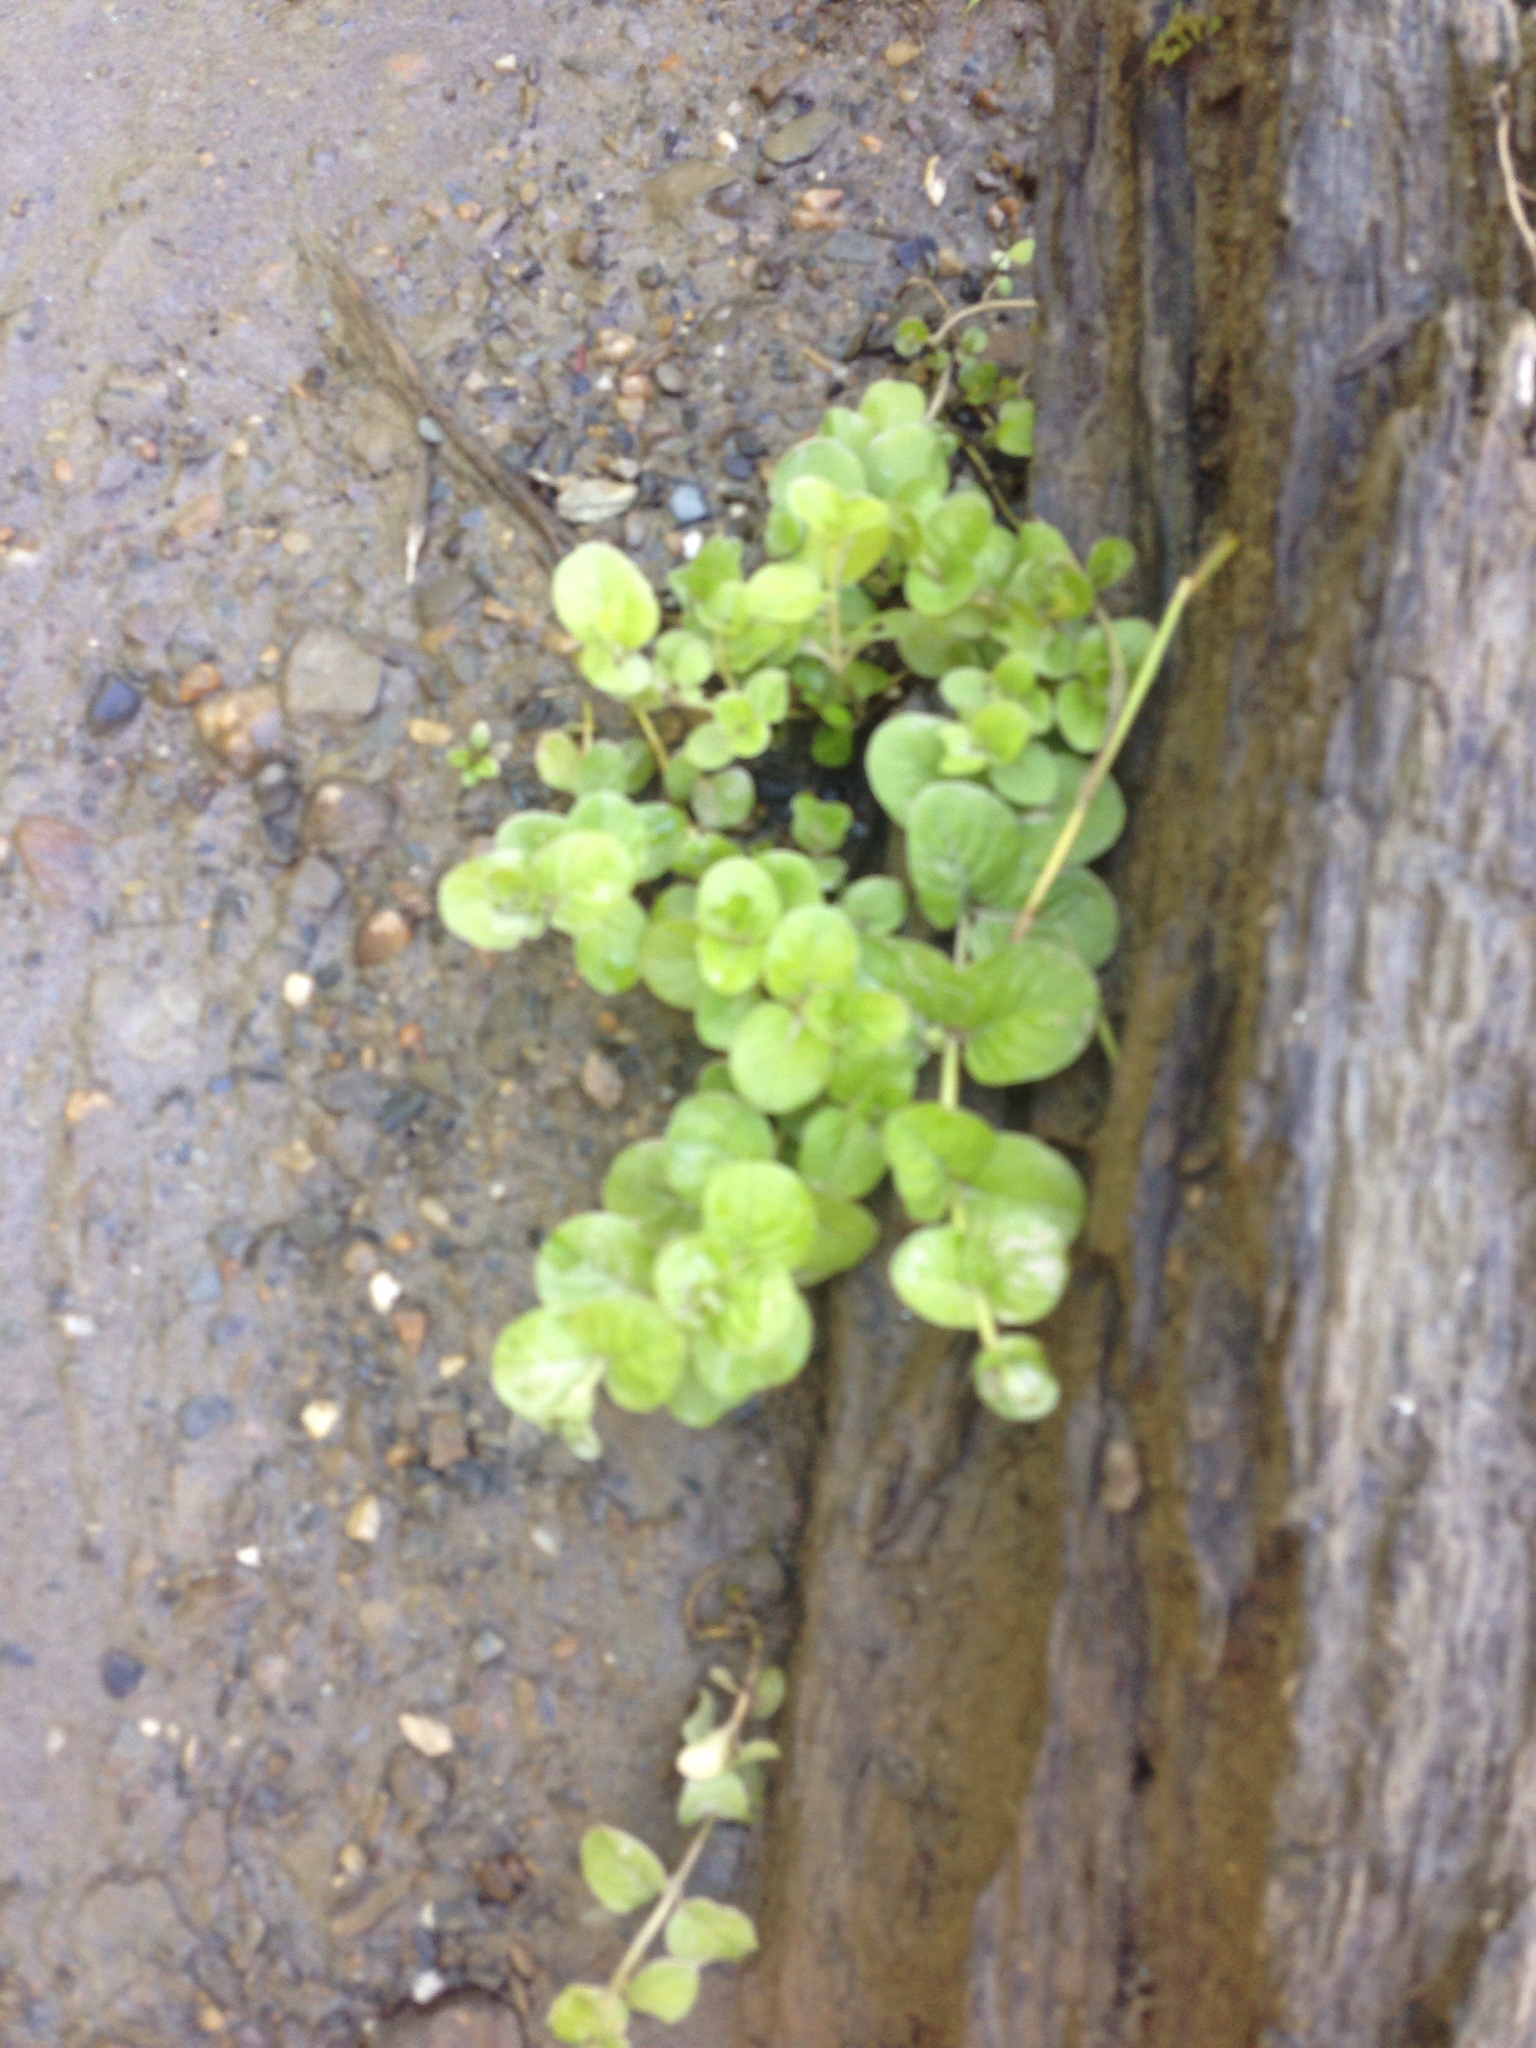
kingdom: Plantae
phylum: Tracheophyta
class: Magnoliopsida
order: Ericales
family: Primulaceae
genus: Lysimachia
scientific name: Lysimachia nummularia
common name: Moneywort
